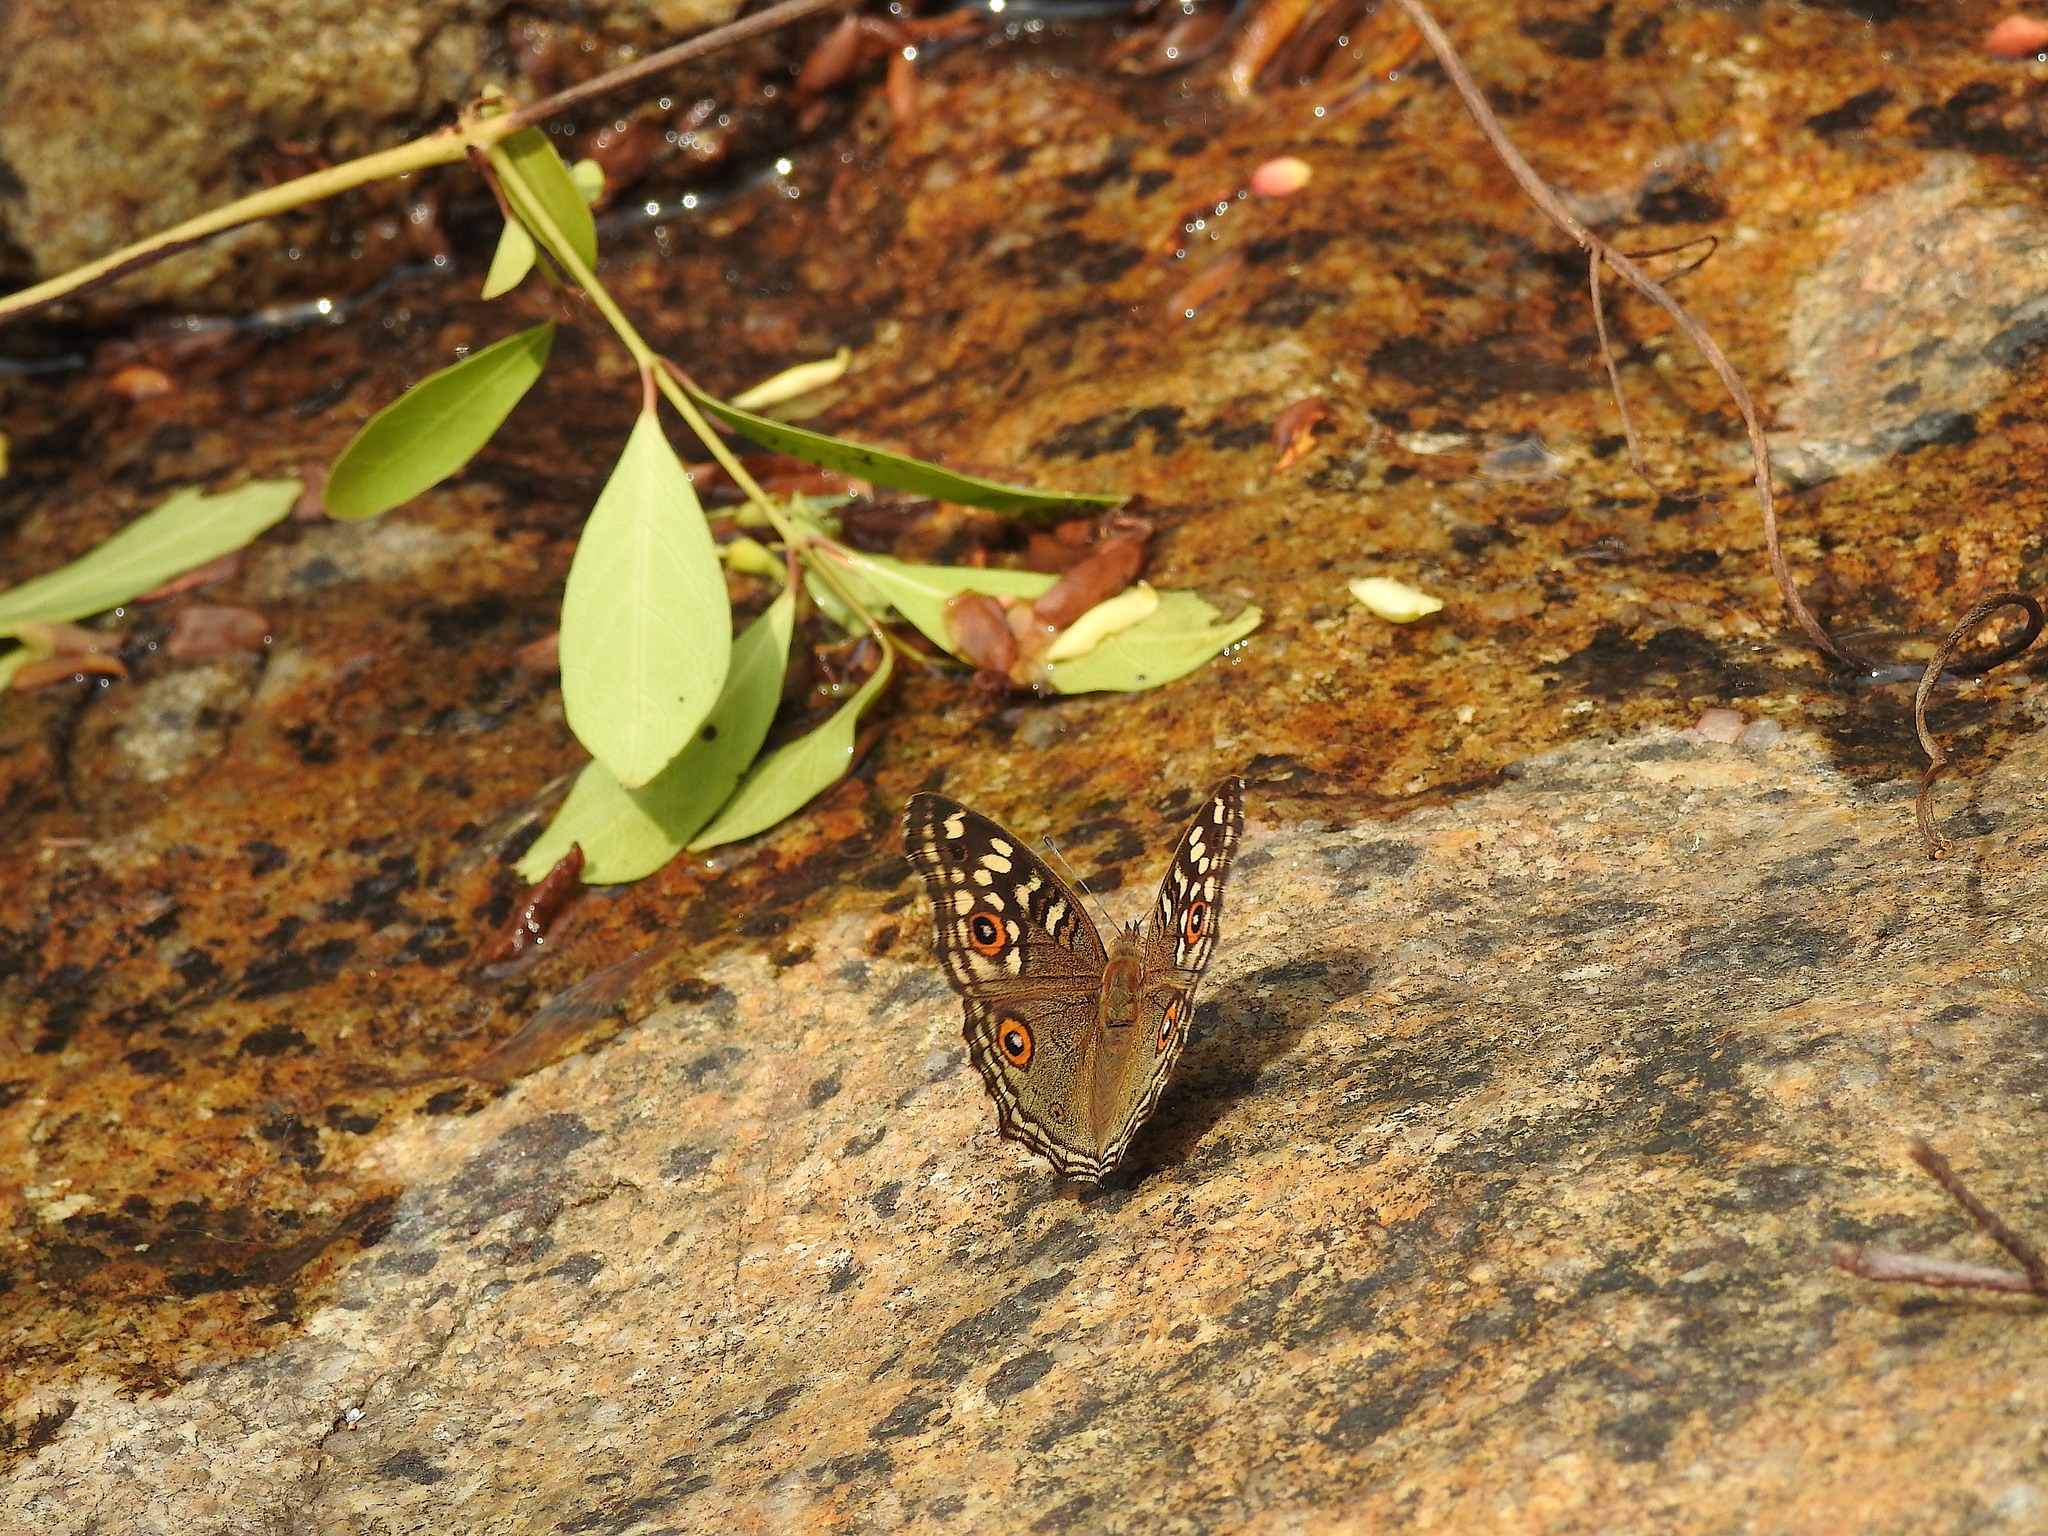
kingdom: Animalia
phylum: Arthropoda
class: Insecta
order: Lepidoptera
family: Nymphalidae
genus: Junonia
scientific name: Junonia lemonias
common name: Lemon pansy
